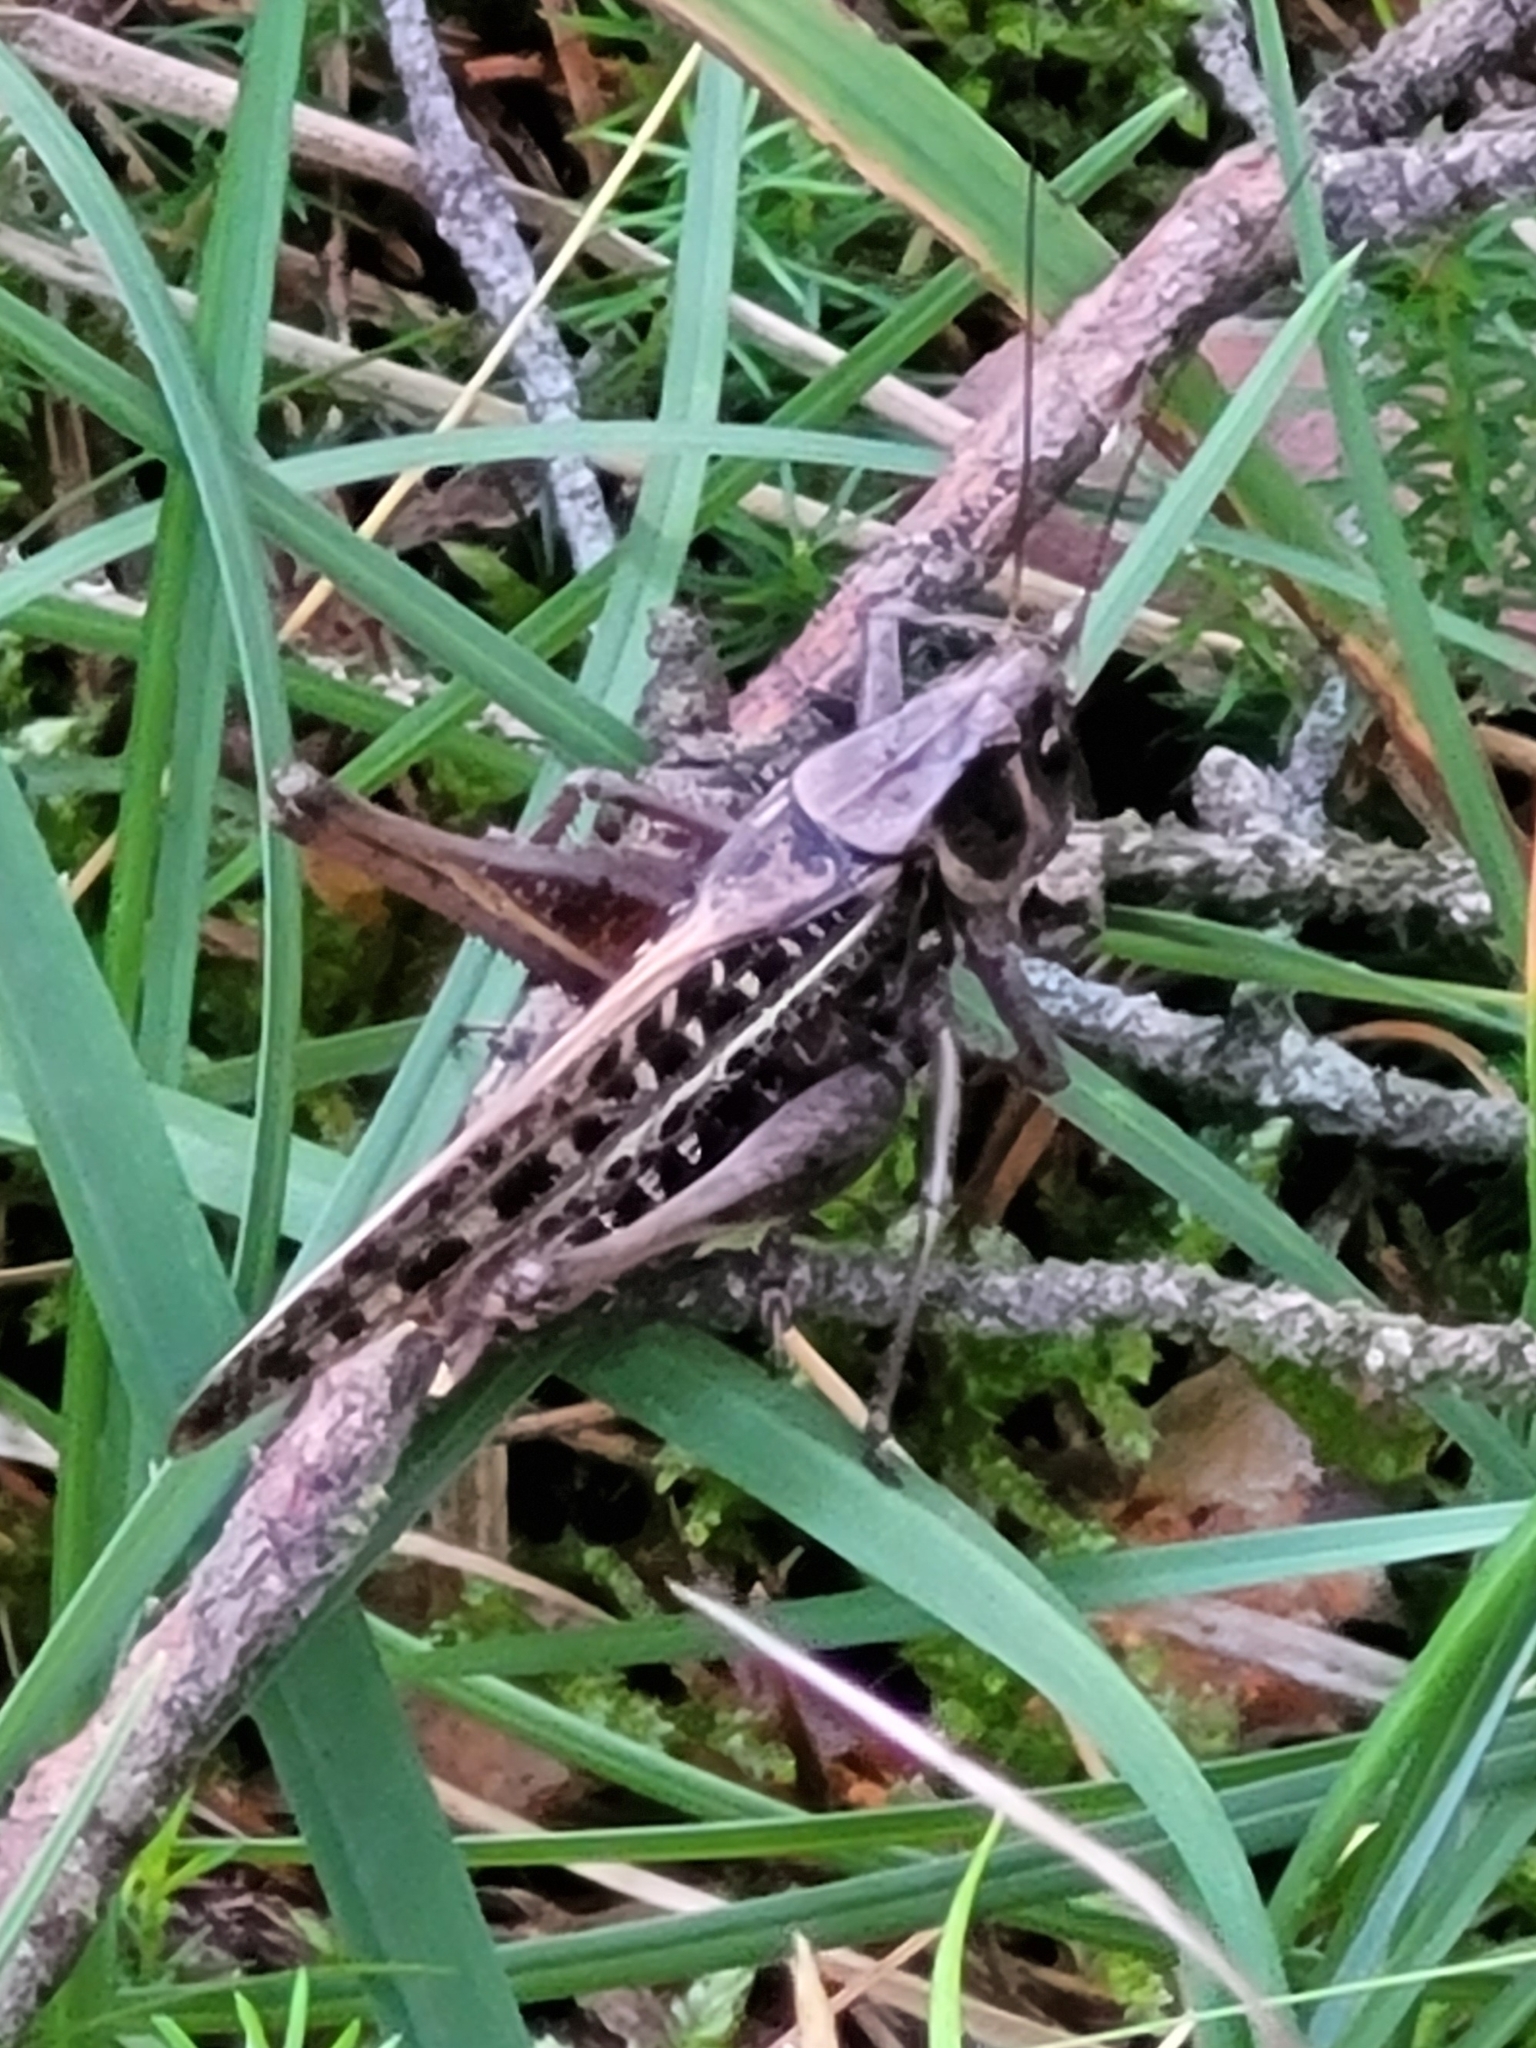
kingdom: Animalia
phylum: Arthropoda
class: Insecta
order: Orthoptera
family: Tettigoniidae
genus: Decticus
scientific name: Decticus verrucivorus
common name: Wart-biter
